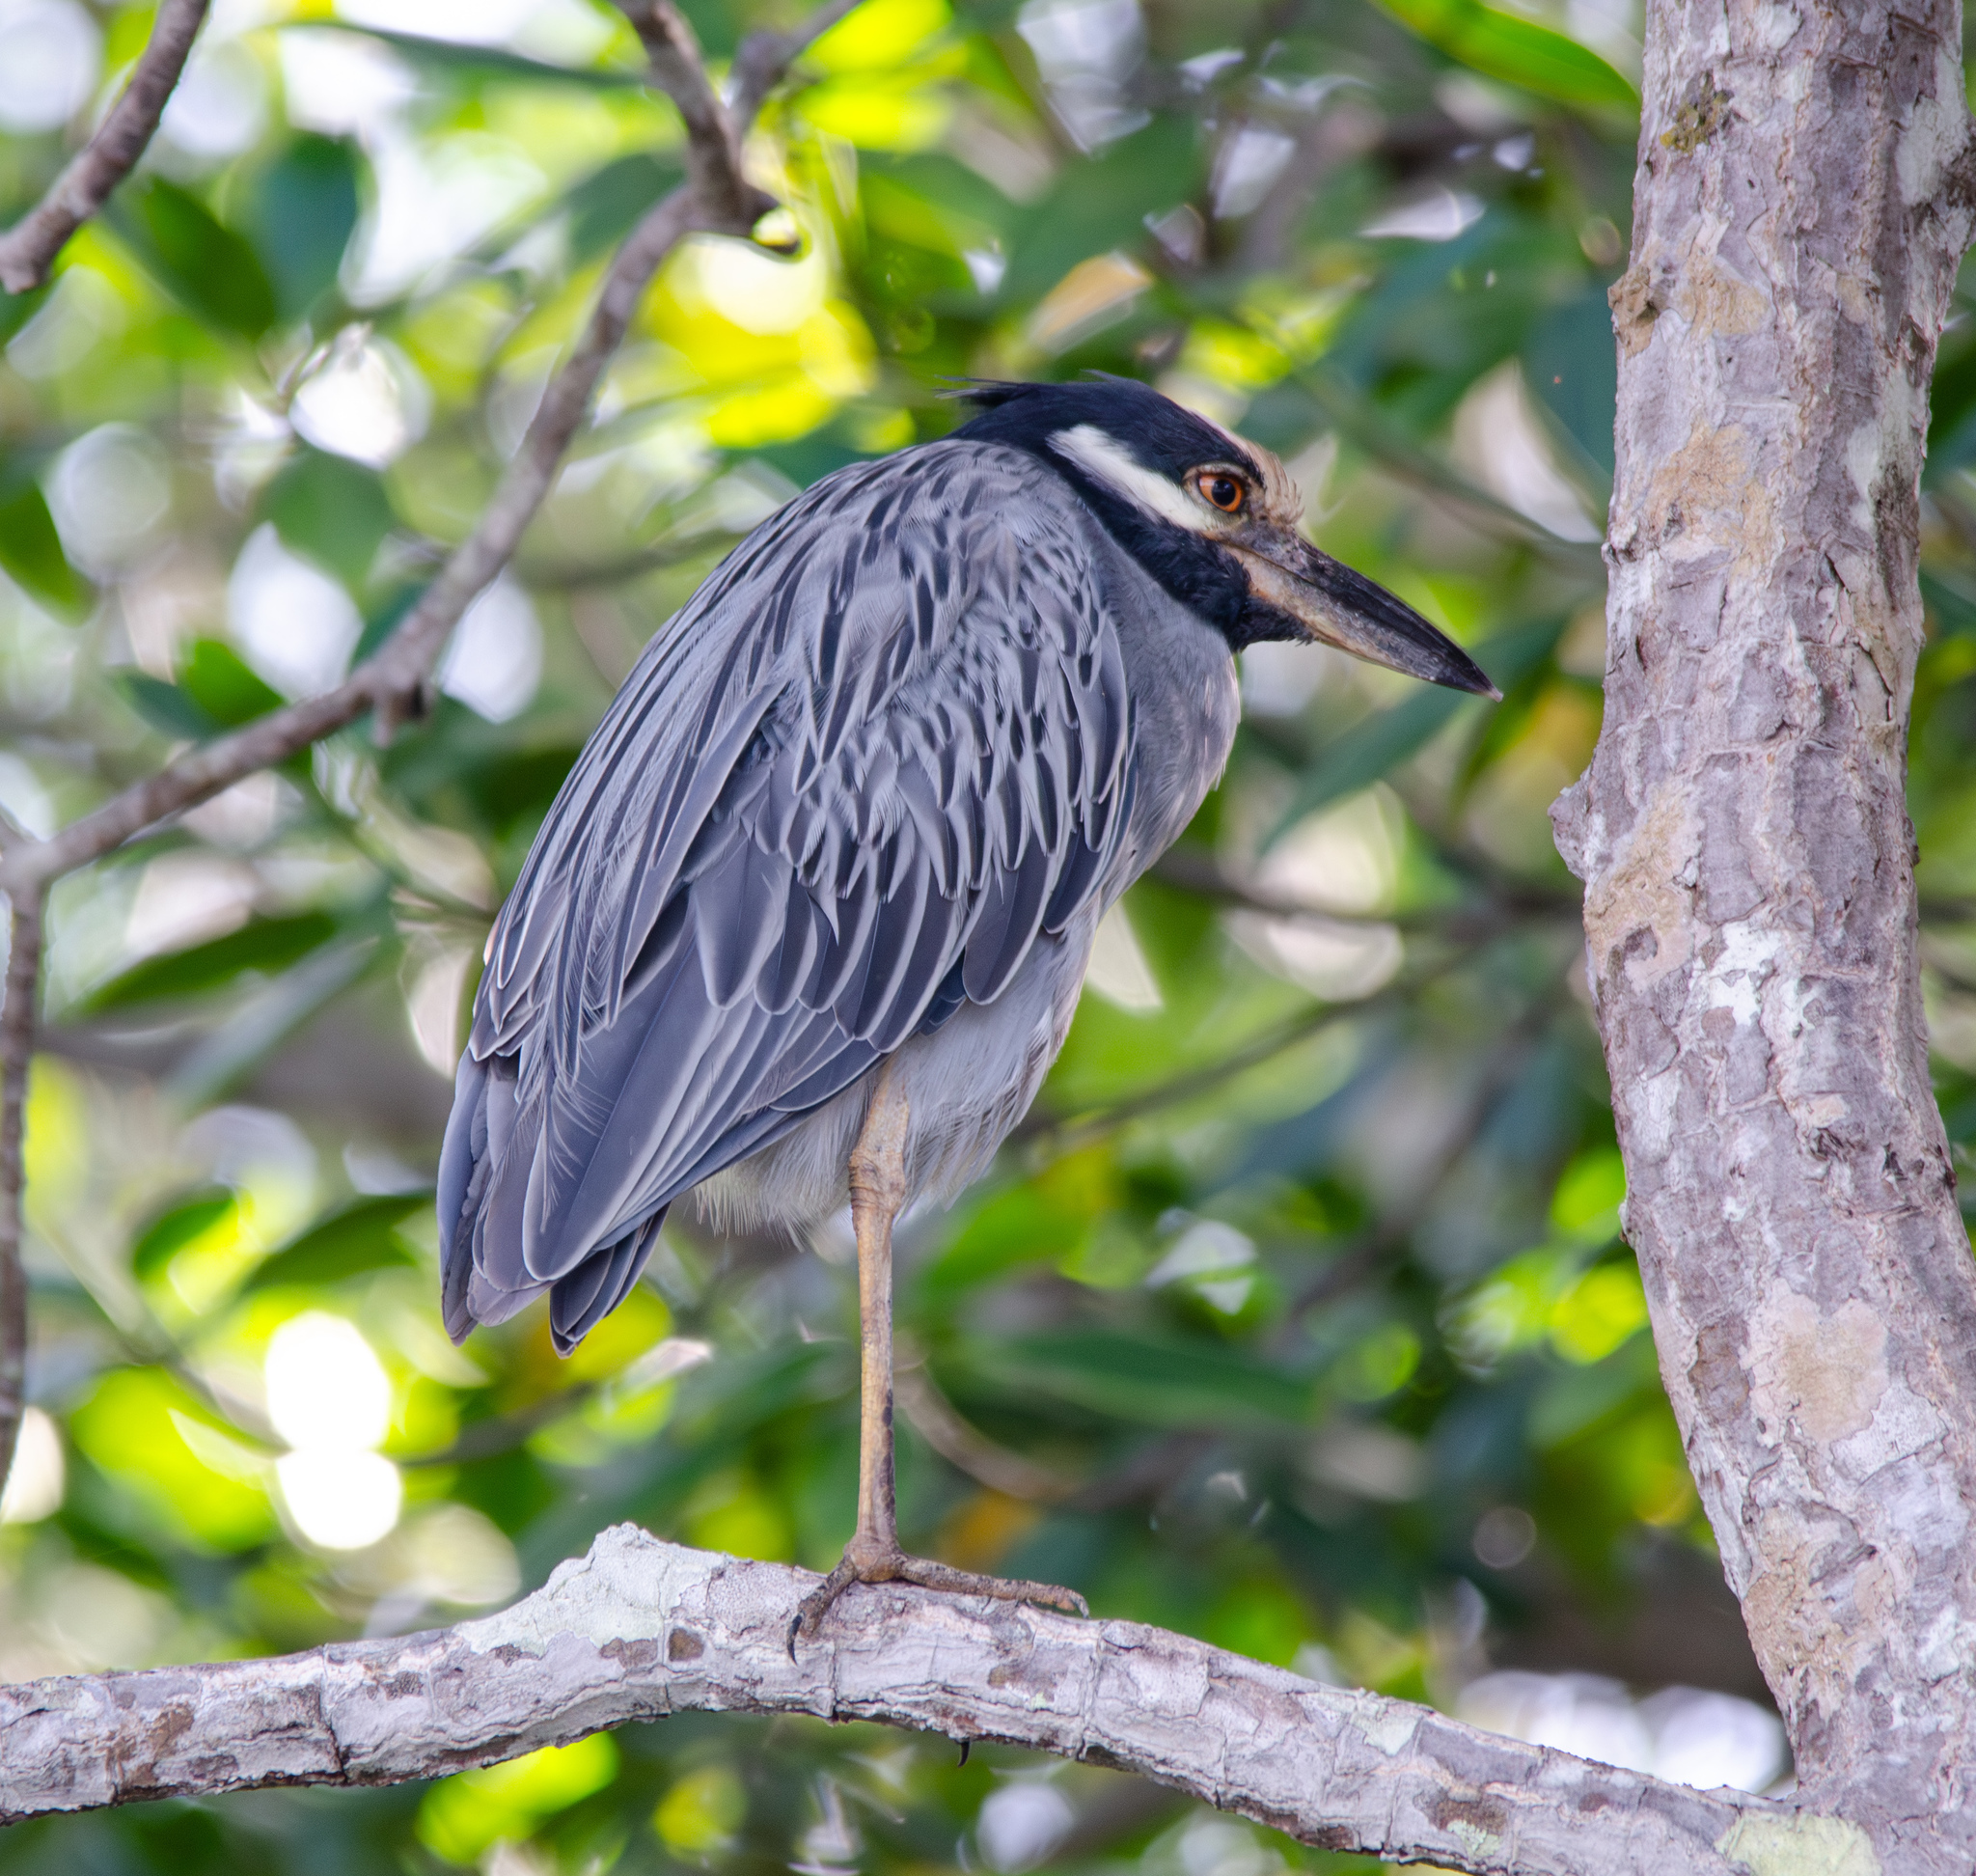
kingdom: Animalia
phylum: Chordata
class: Aves
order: Pelecaniformes
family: Ardeidae
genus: Nyctanassa
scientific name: Nyctanassa violacea
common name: Yellow-crowned night heron
